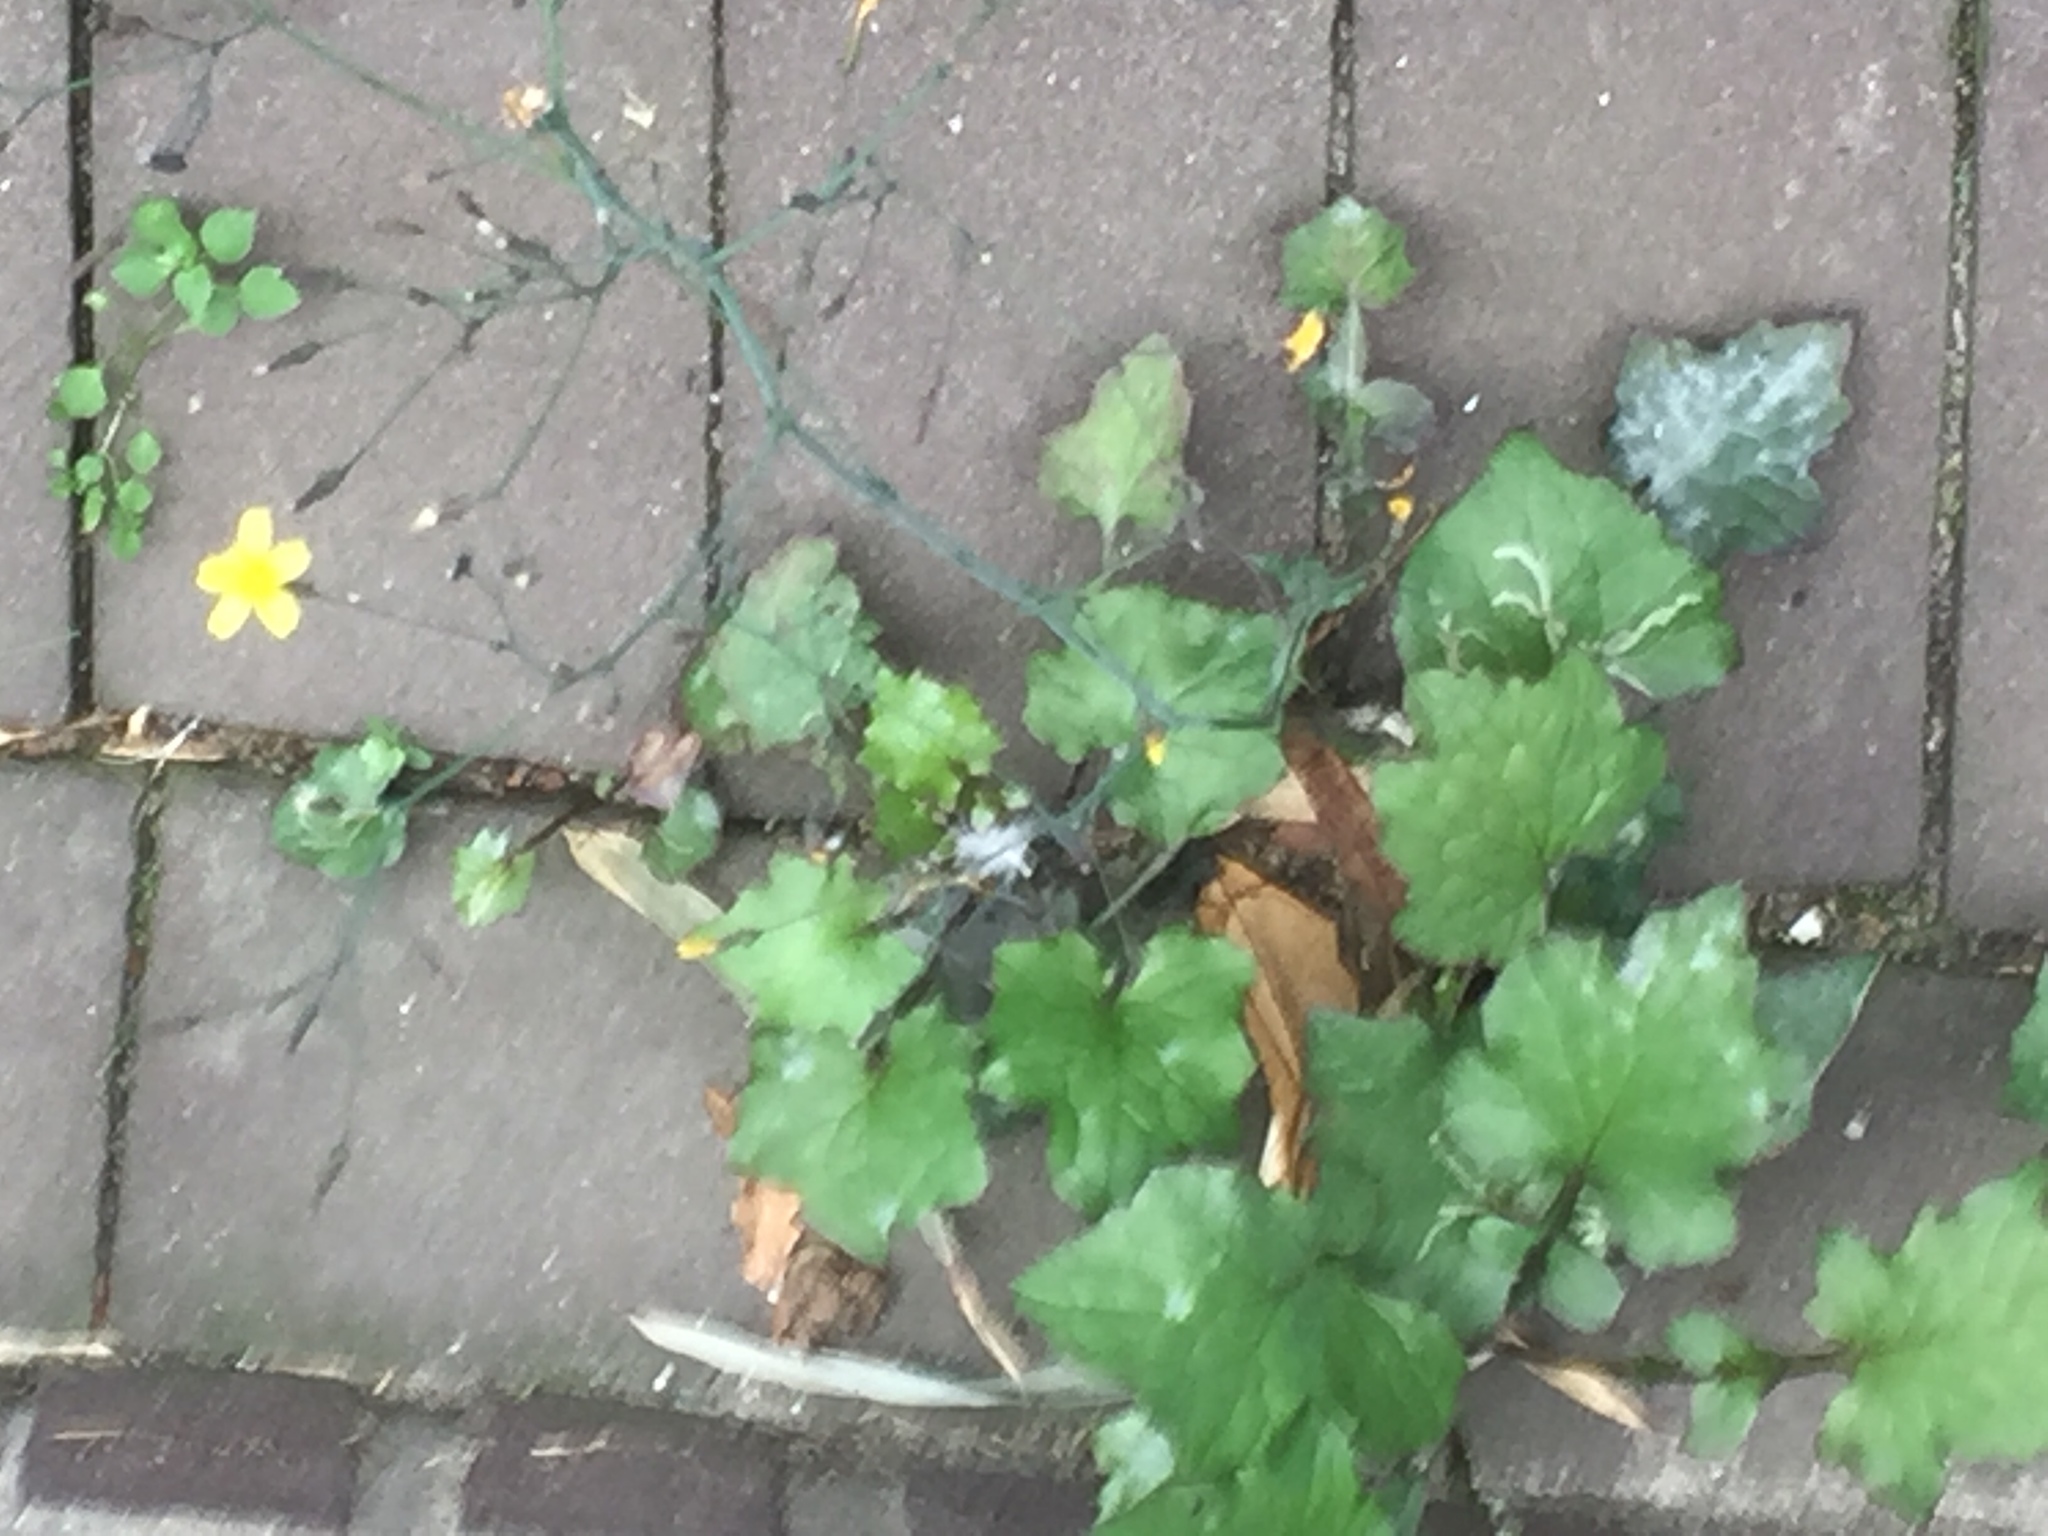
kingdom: Plantae
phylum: Tracheophyta
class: Magnoliopsida
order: Asterales
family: Asteraceae
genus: Mycelis
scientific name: Mycelis muralis
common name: Wall lettuce
